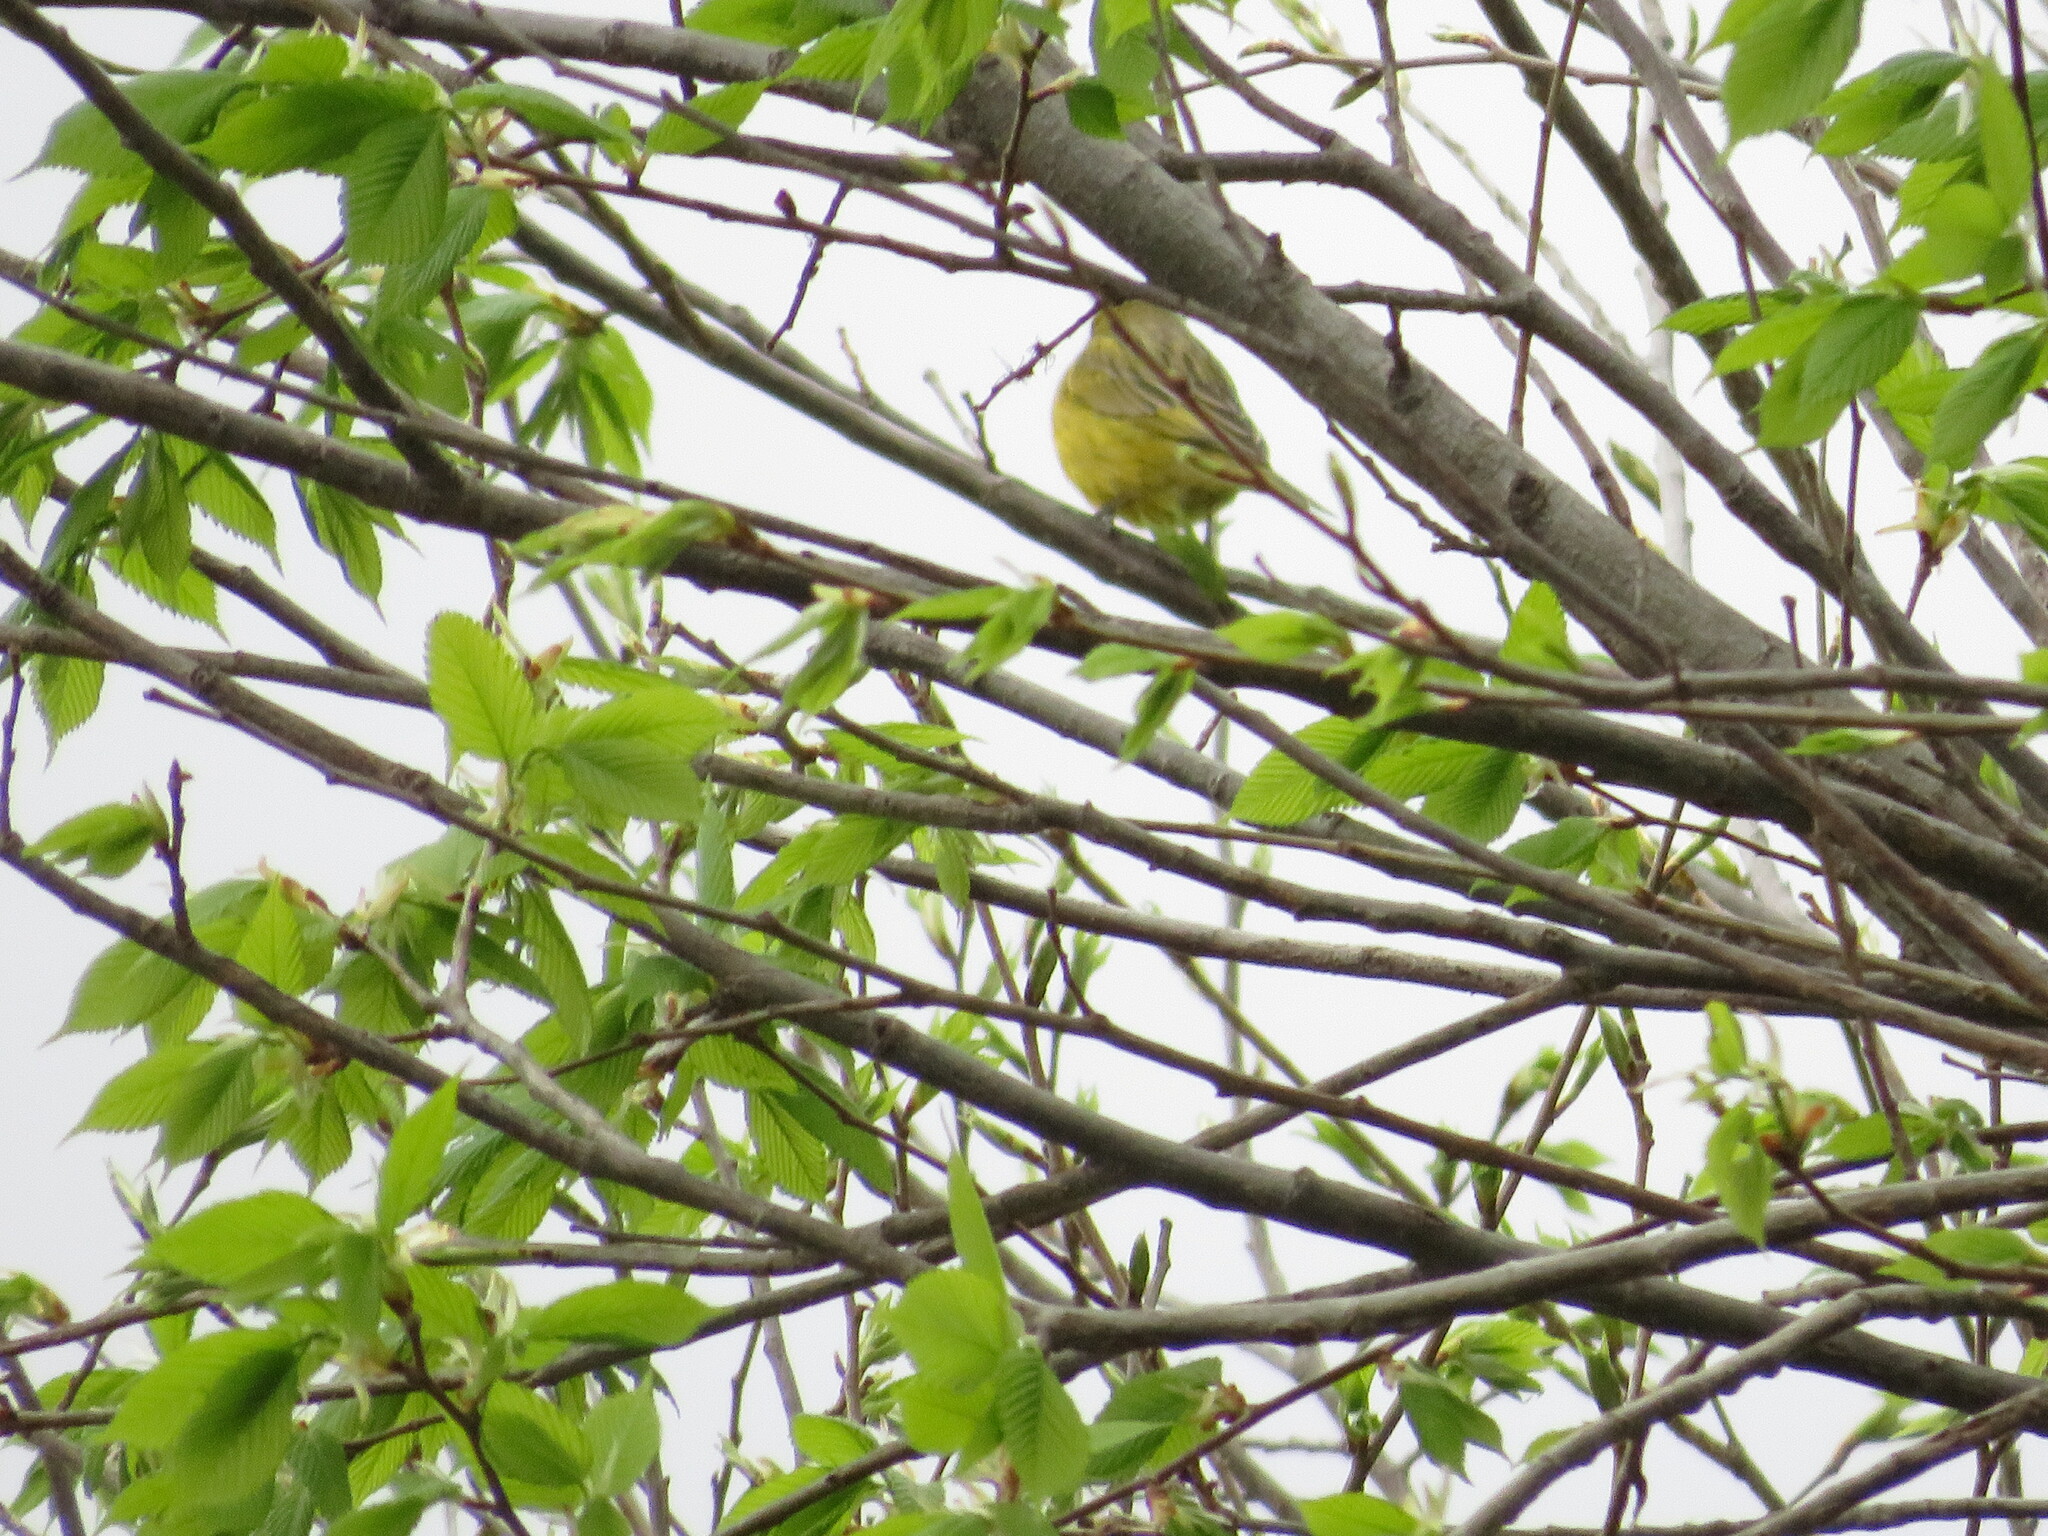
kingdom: Animalia
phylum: Chordata
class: Aves
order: Passeriformes
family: Thraupidae
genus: Sicalis
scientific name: Sicalis flaveola
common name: Saffron finch
